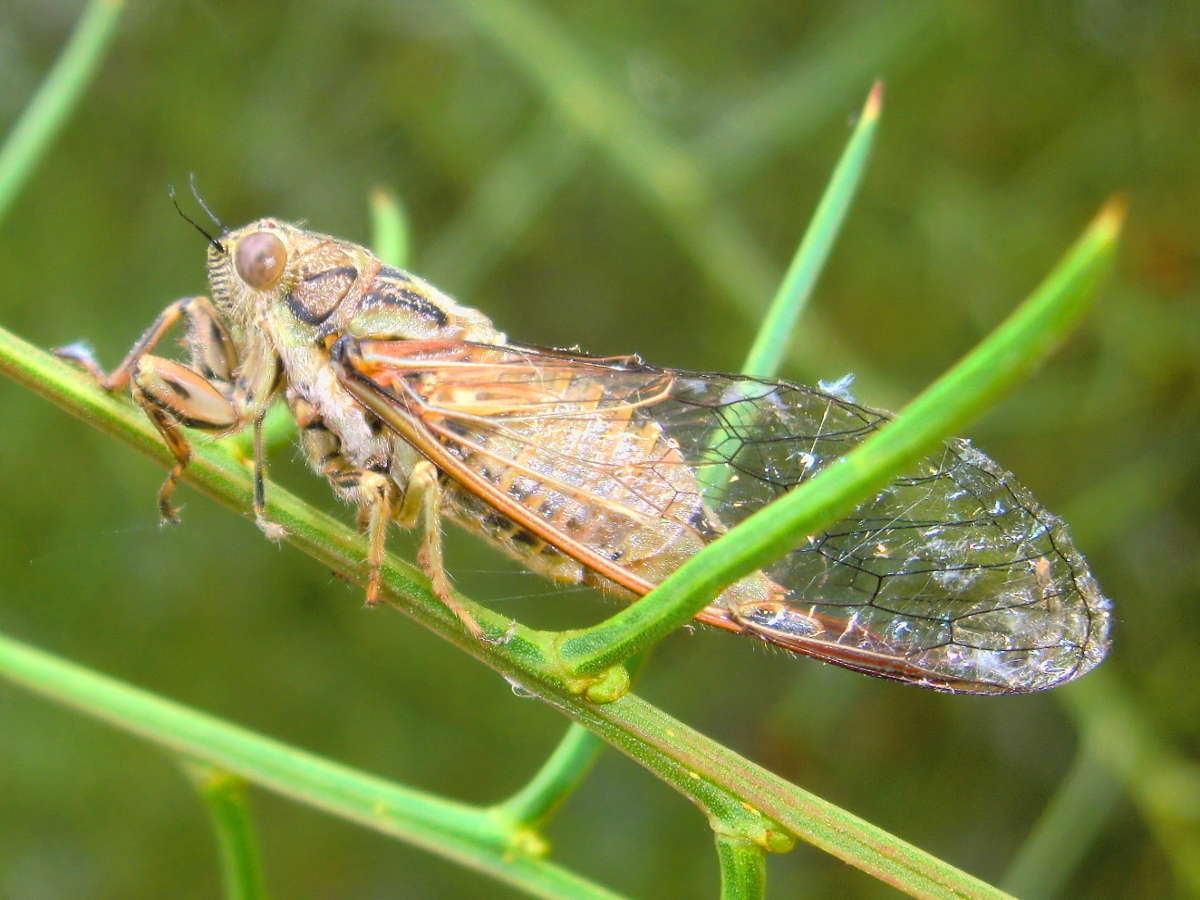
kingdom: Animalia
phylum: Arthropoda
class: Insecta
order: Hemiptera
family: Cicadidae
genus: Yoyetta
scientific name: Yoyetta celis
